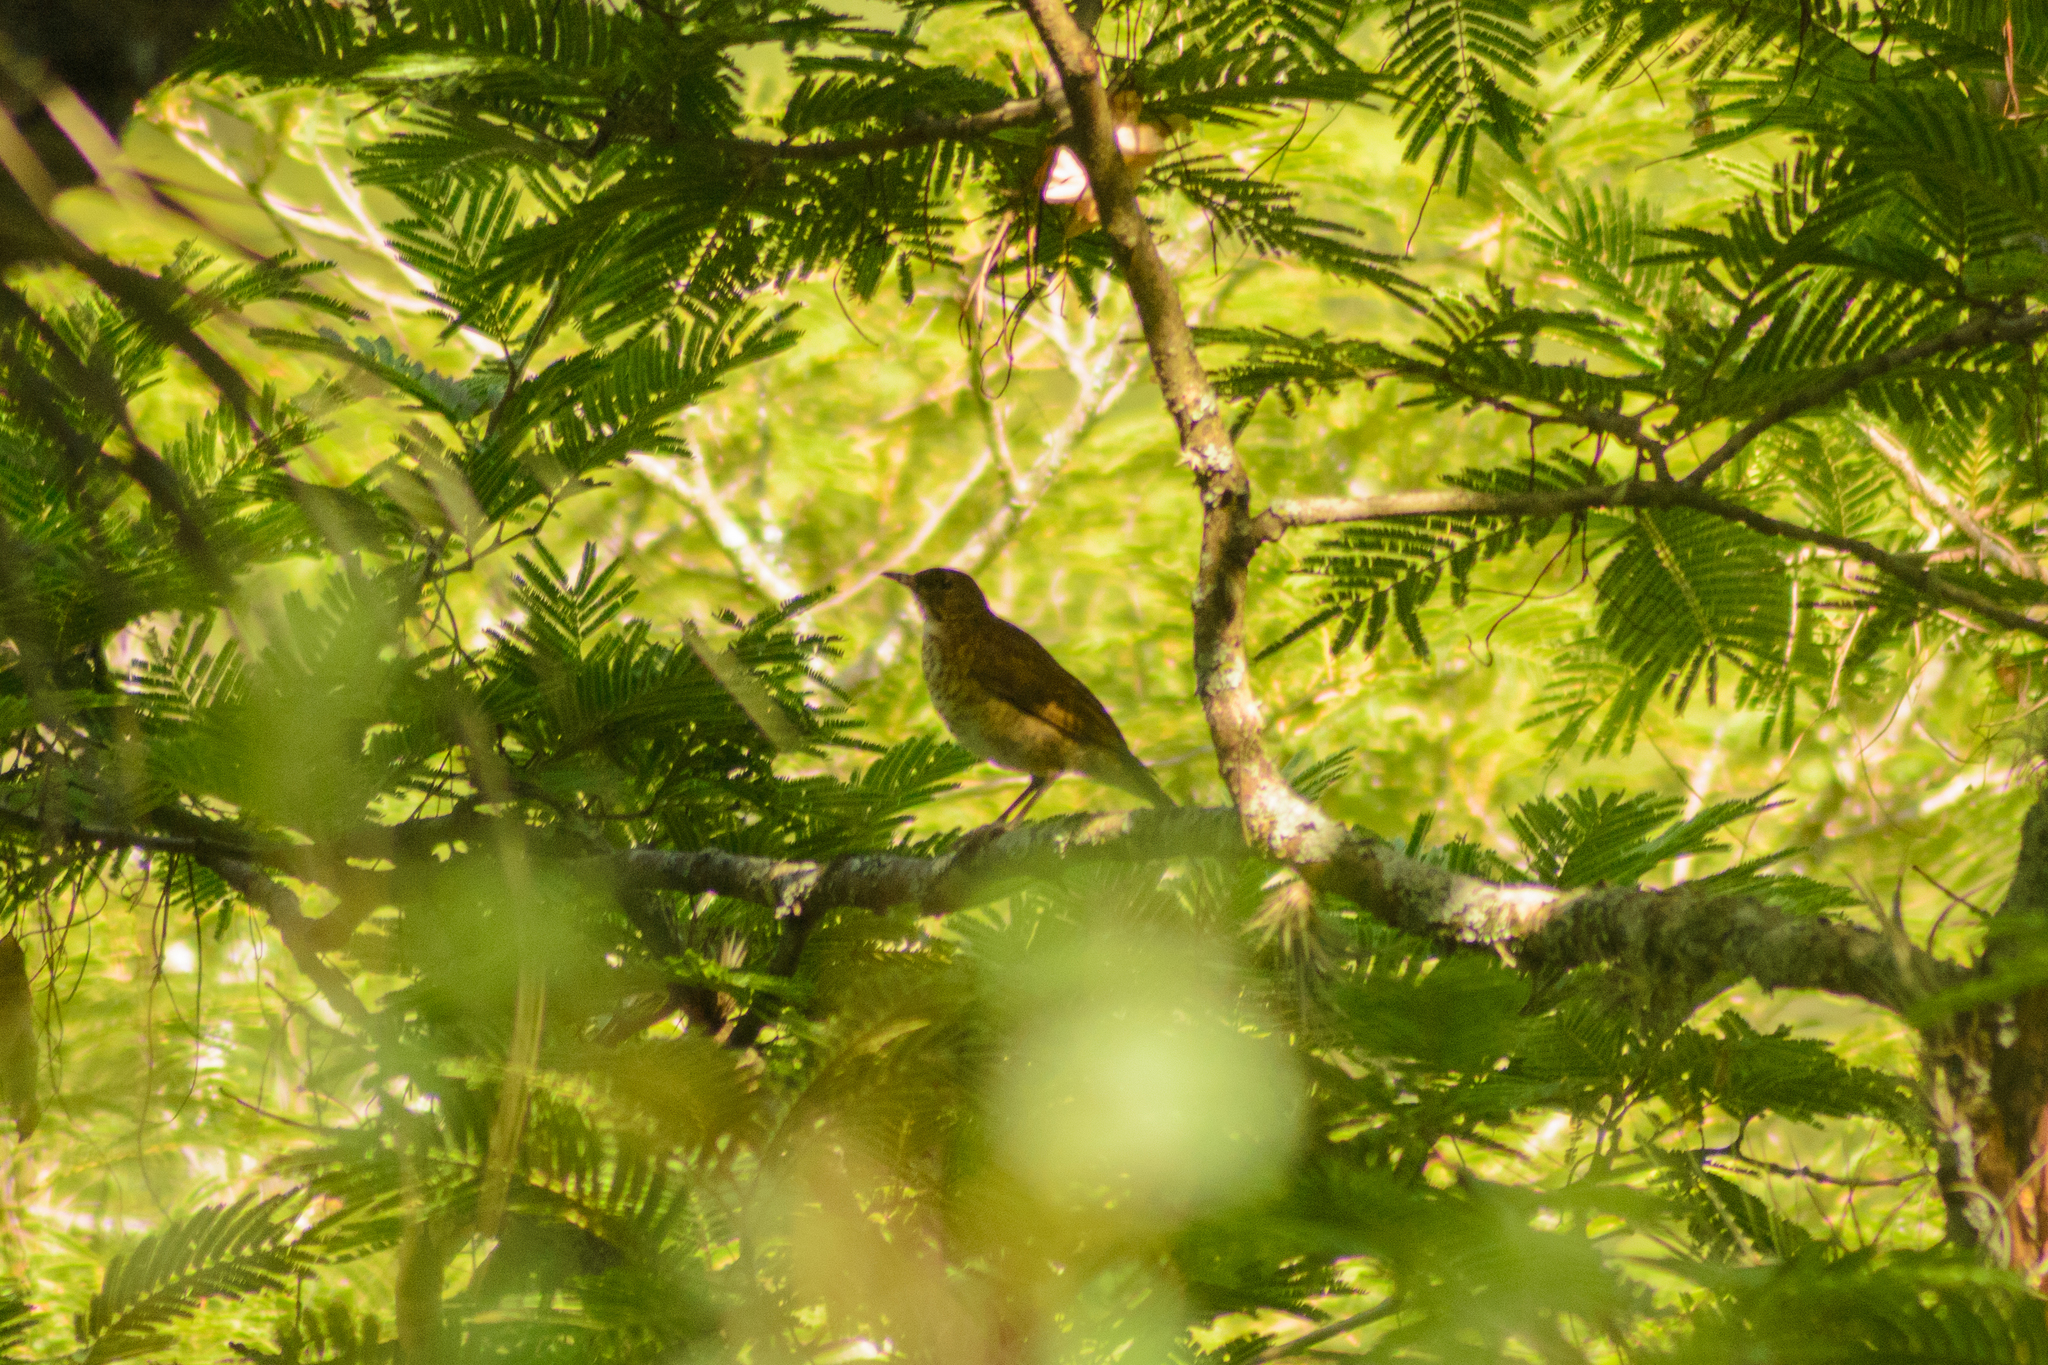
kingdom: Animalia
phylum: Chordata
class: Aves
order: Passeriformes
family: Turdidae
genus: Turdus
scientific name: Turdus grayi
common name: Clay-colored thrush
